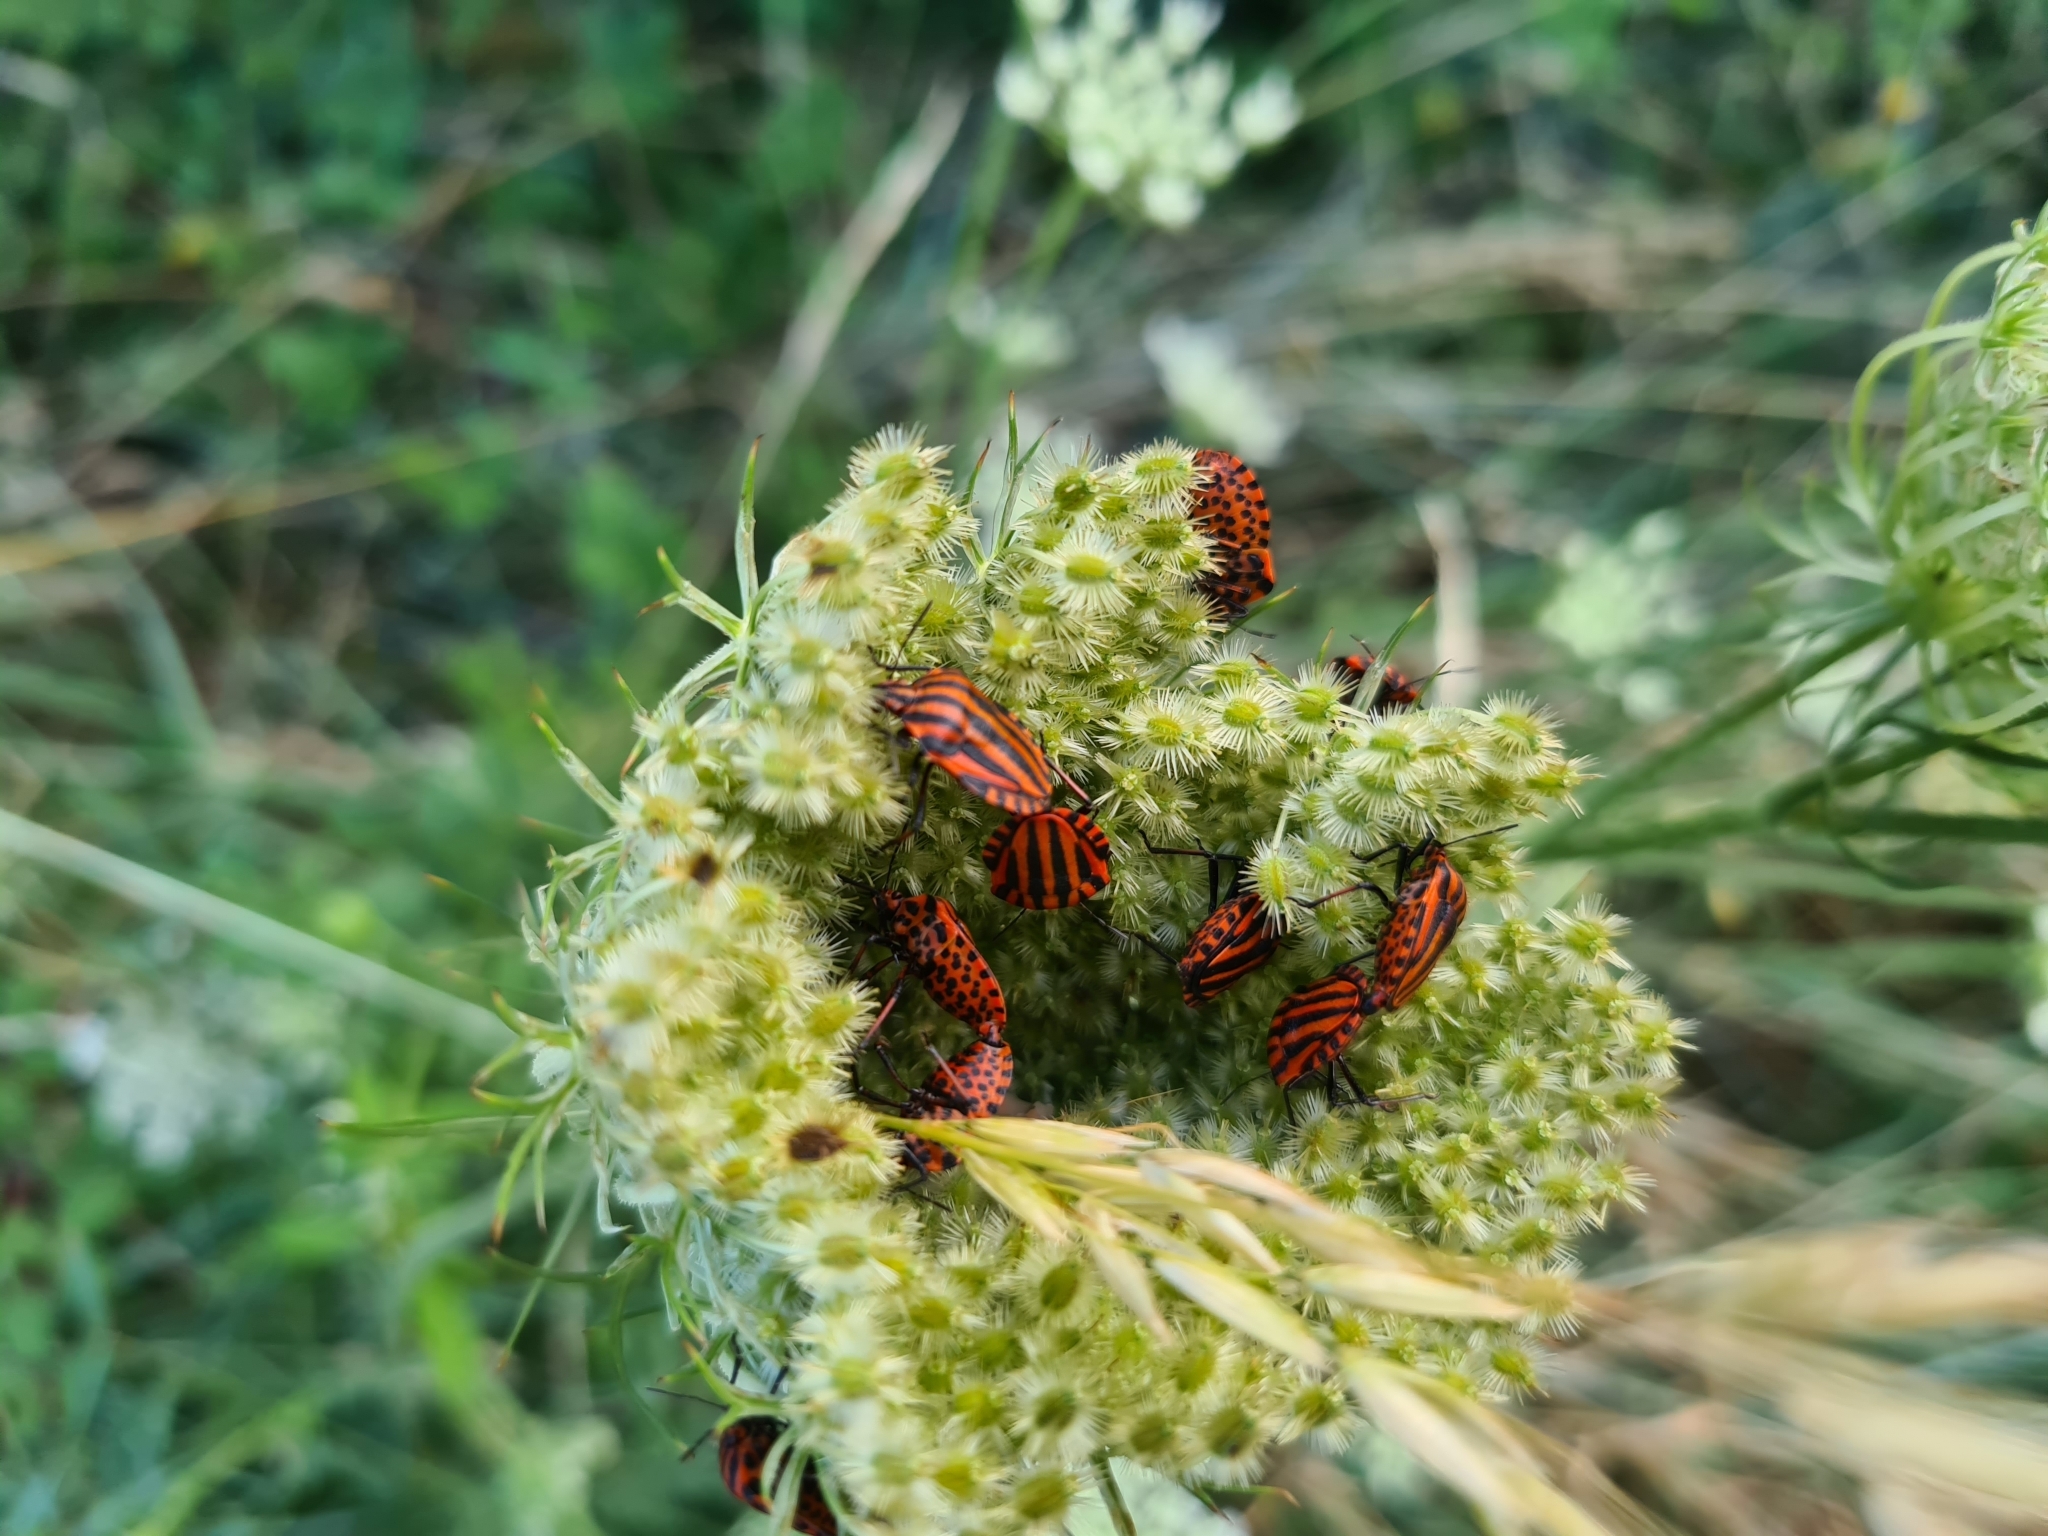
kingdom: Animalia
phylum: Arthropoda
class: Insecta
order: Hemiptera
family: Pentatomidae
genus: Graphosoma
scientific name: Graphosoma italicum
